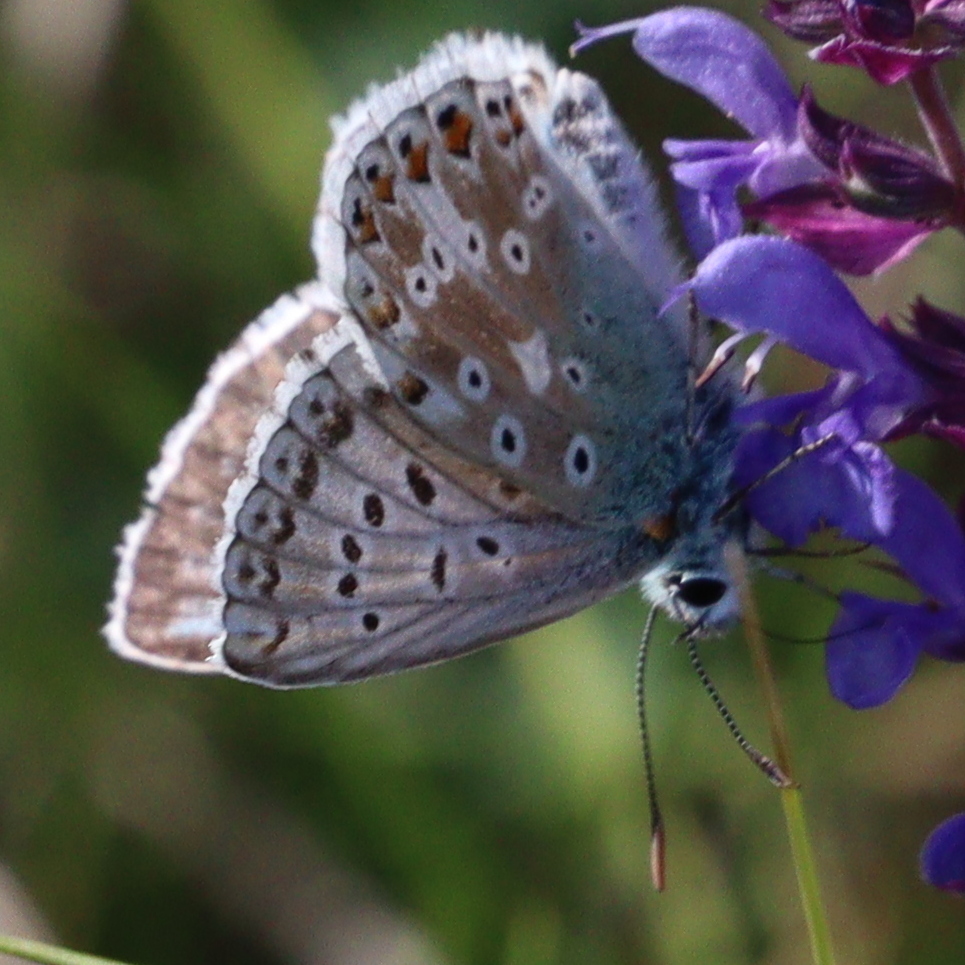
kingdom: Animalia
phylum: Arthropoda
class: Insecta
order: Lepidoptera
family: Lycaenidae
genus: Lysandra
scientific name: Lysandra coridon
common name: Chalkhill blue
